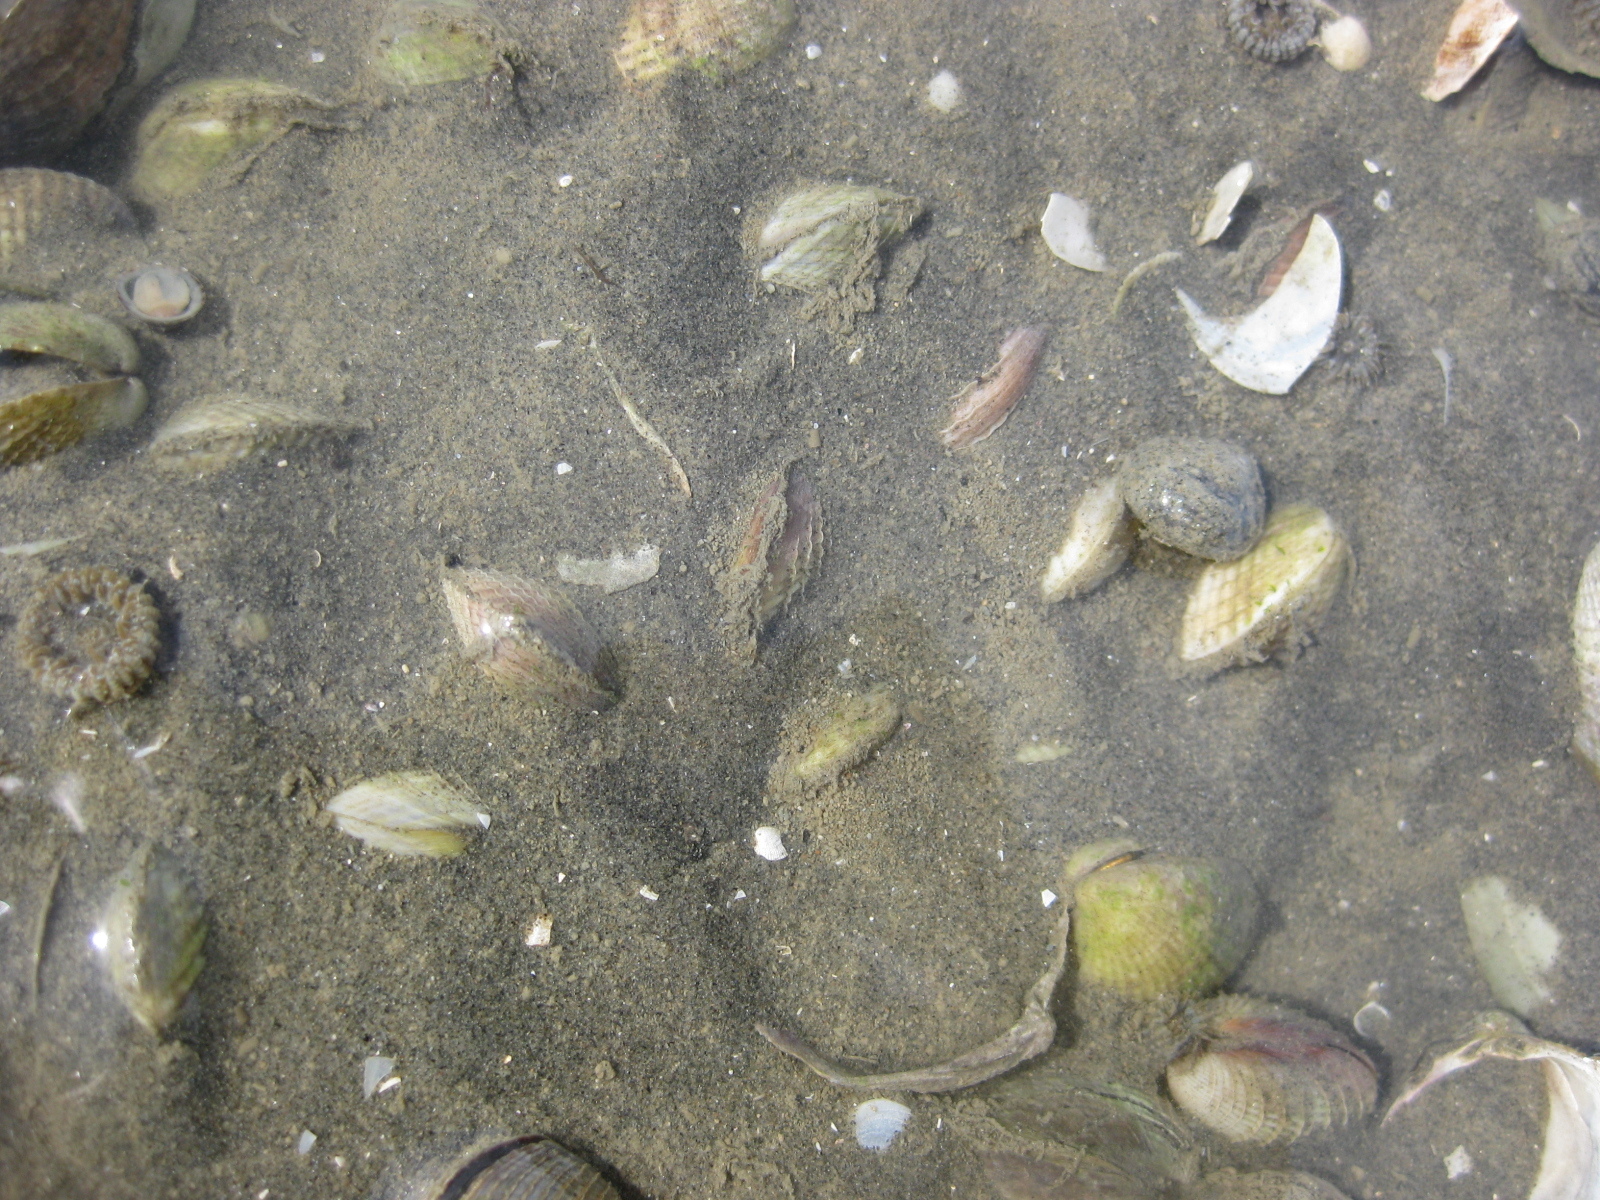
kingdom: Animalia
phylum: Mollusca
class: Bivalvia
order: Venerida
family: Veneridae
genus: Austrovenus
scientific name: Austrovenus stutchburyi
